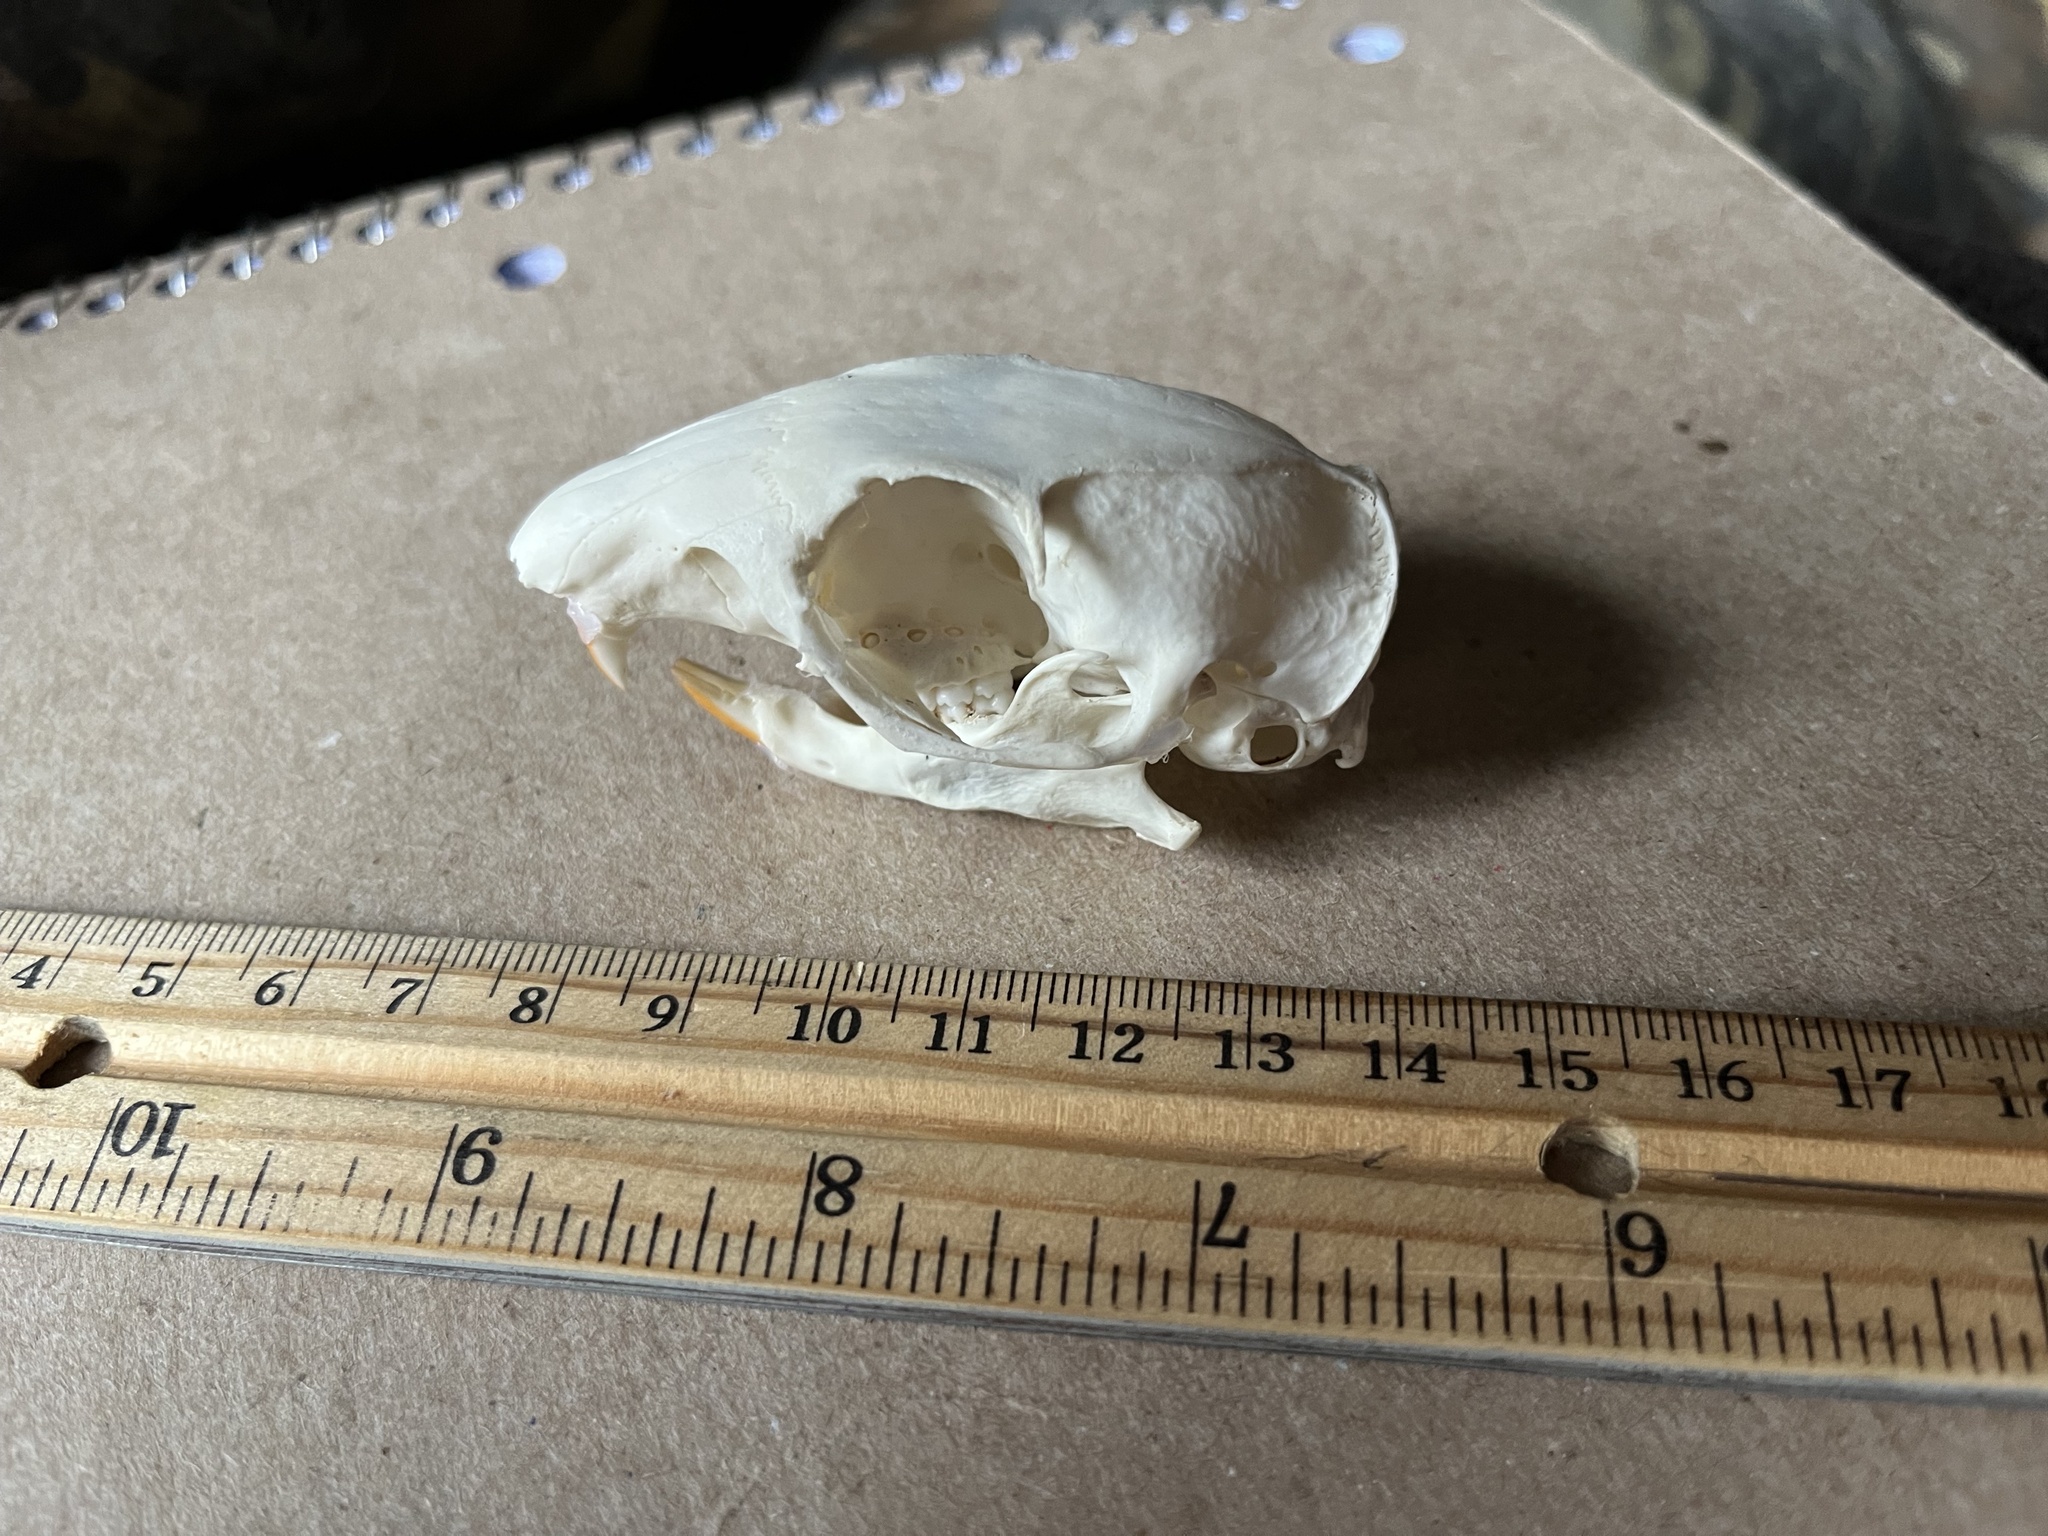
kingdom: Animalia
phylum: Chordata
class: Mammalia
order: Rodentia
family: Sciuridae
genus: Otospermophilus
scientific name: Otospermophilus variegatus
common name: Rock squirrel
